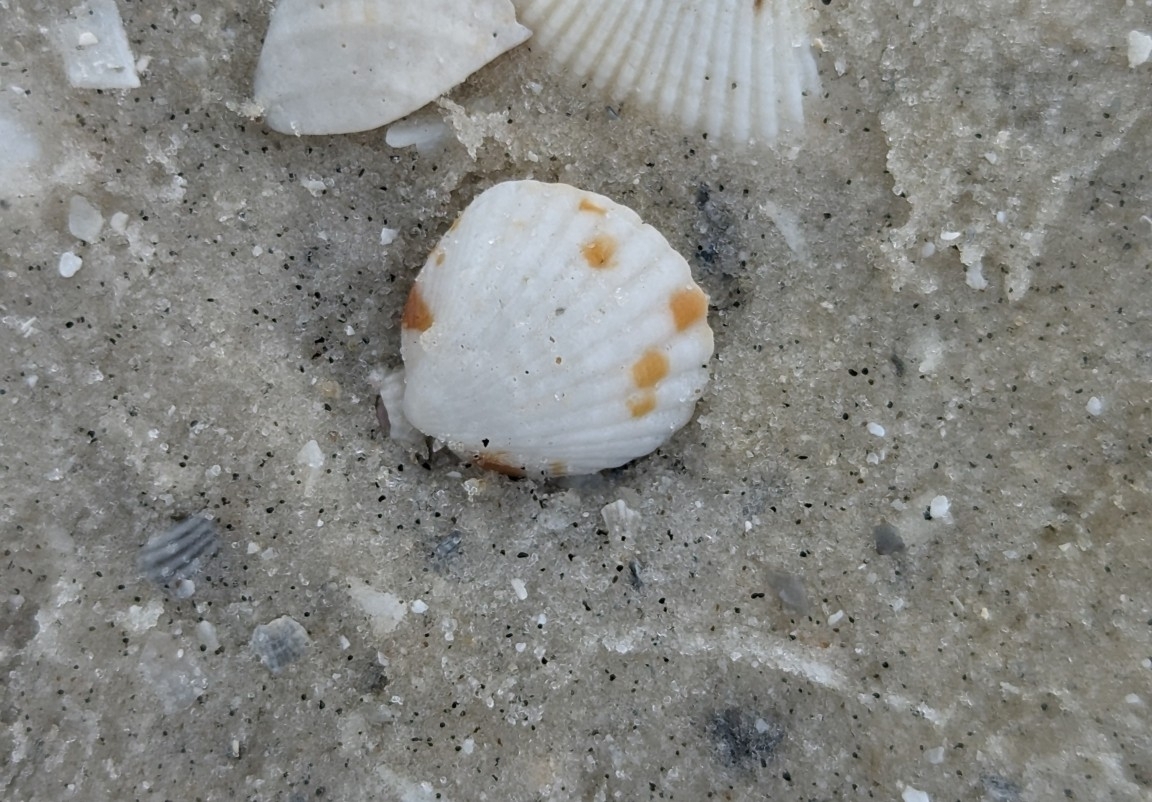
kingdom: Animalia
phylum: Mollusca
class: Bivalvia
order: Arcida
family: Glycymerididae
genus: Tucetona
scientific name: Tucetona pectinata
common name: Comb bittersweet
